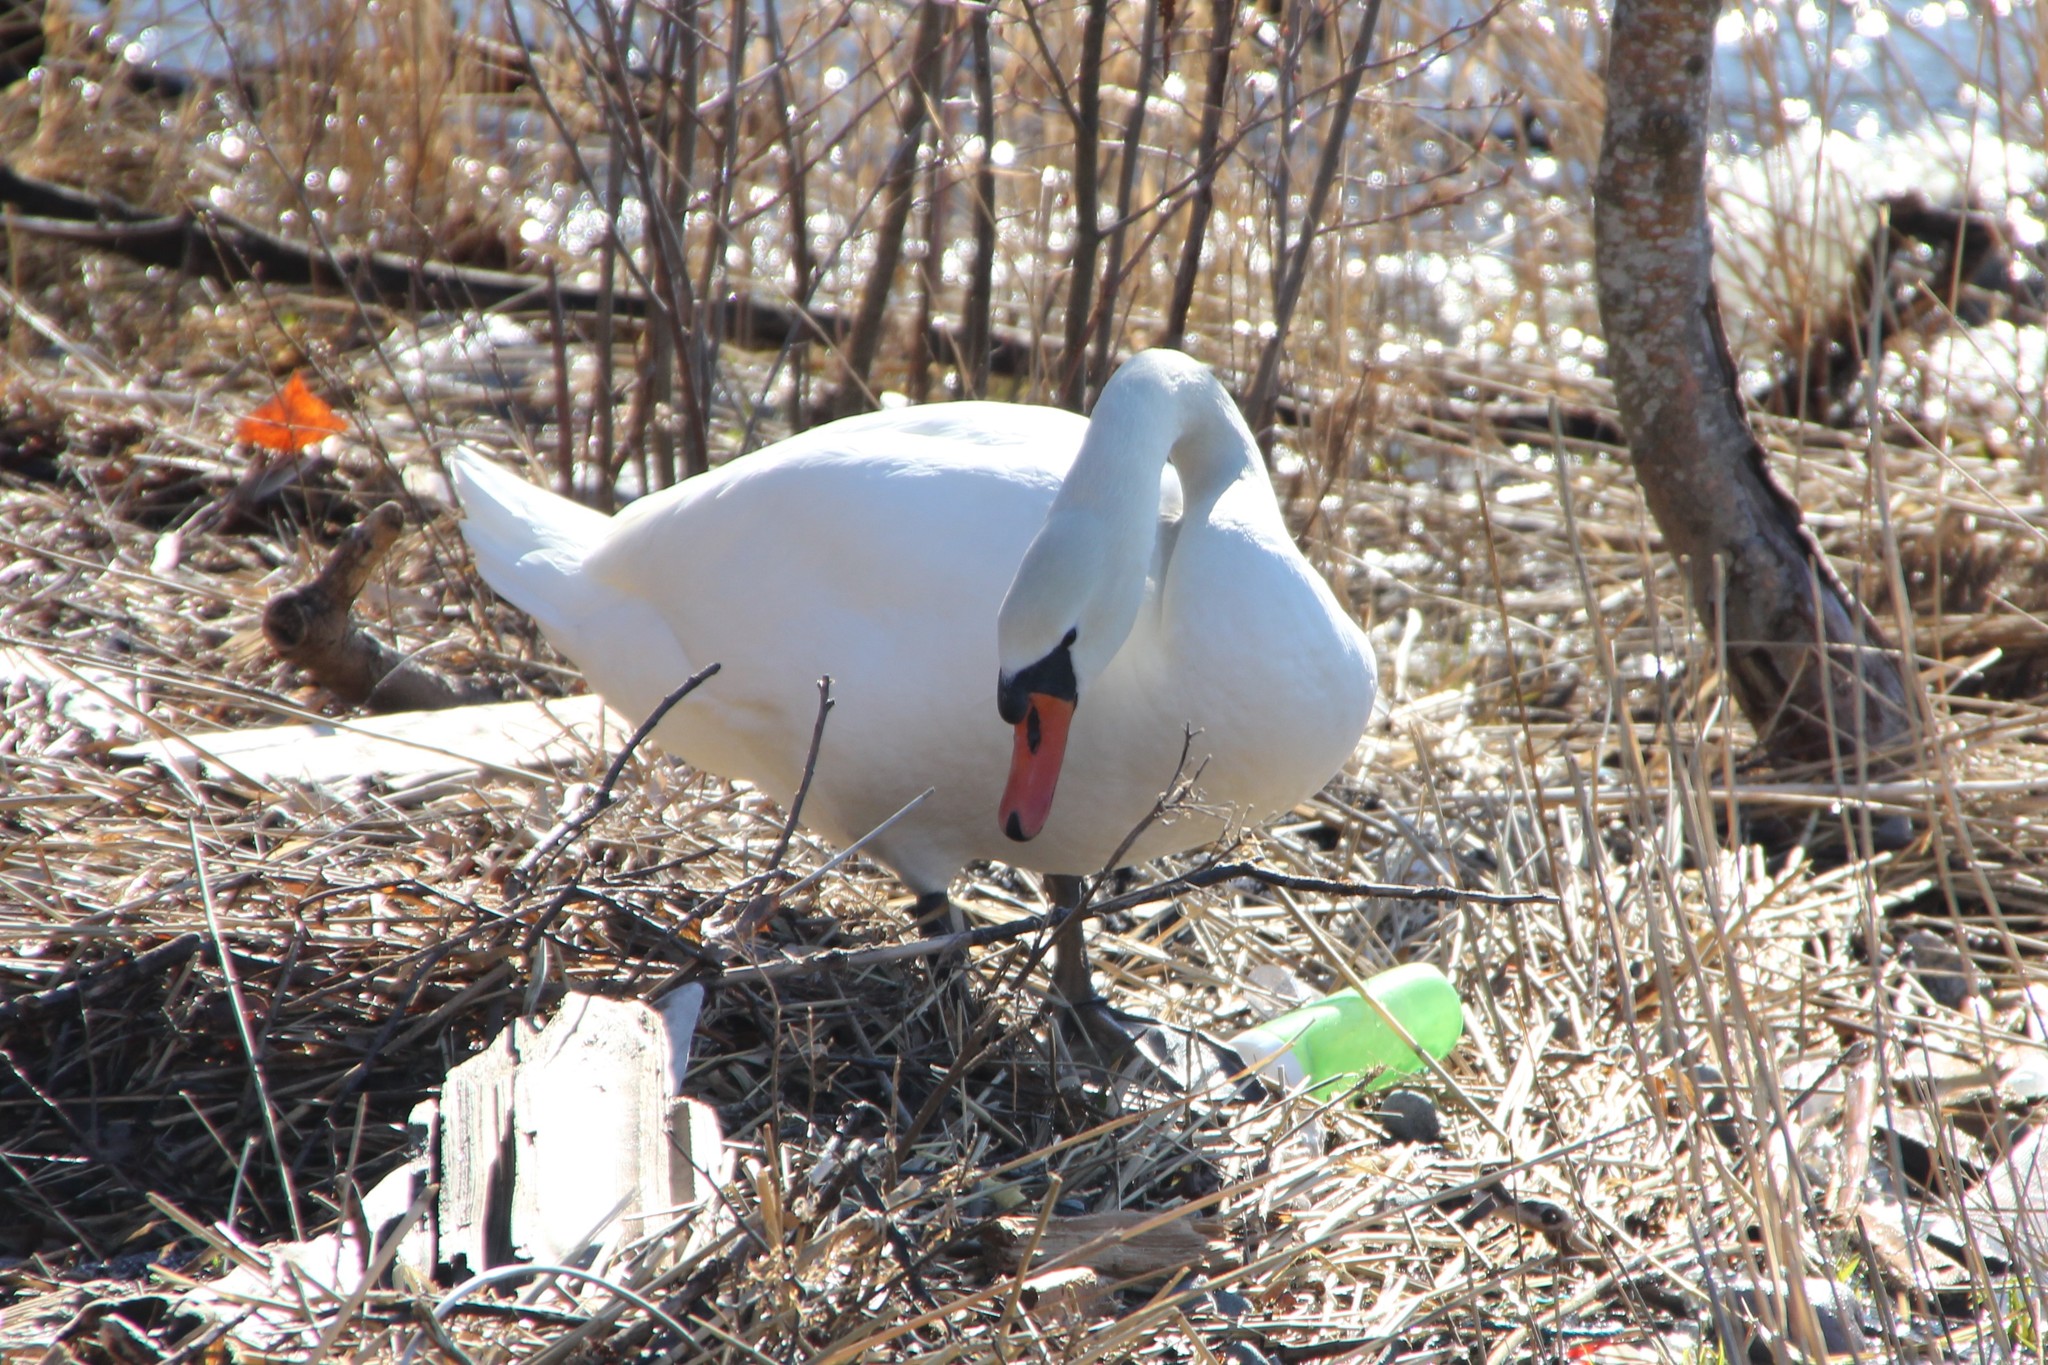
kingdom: Animalia
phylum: Chordata
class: Aves
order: Anseriformes
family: Anatidae
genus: Cygnus
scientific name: Cygnus olor
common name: Mute swan
